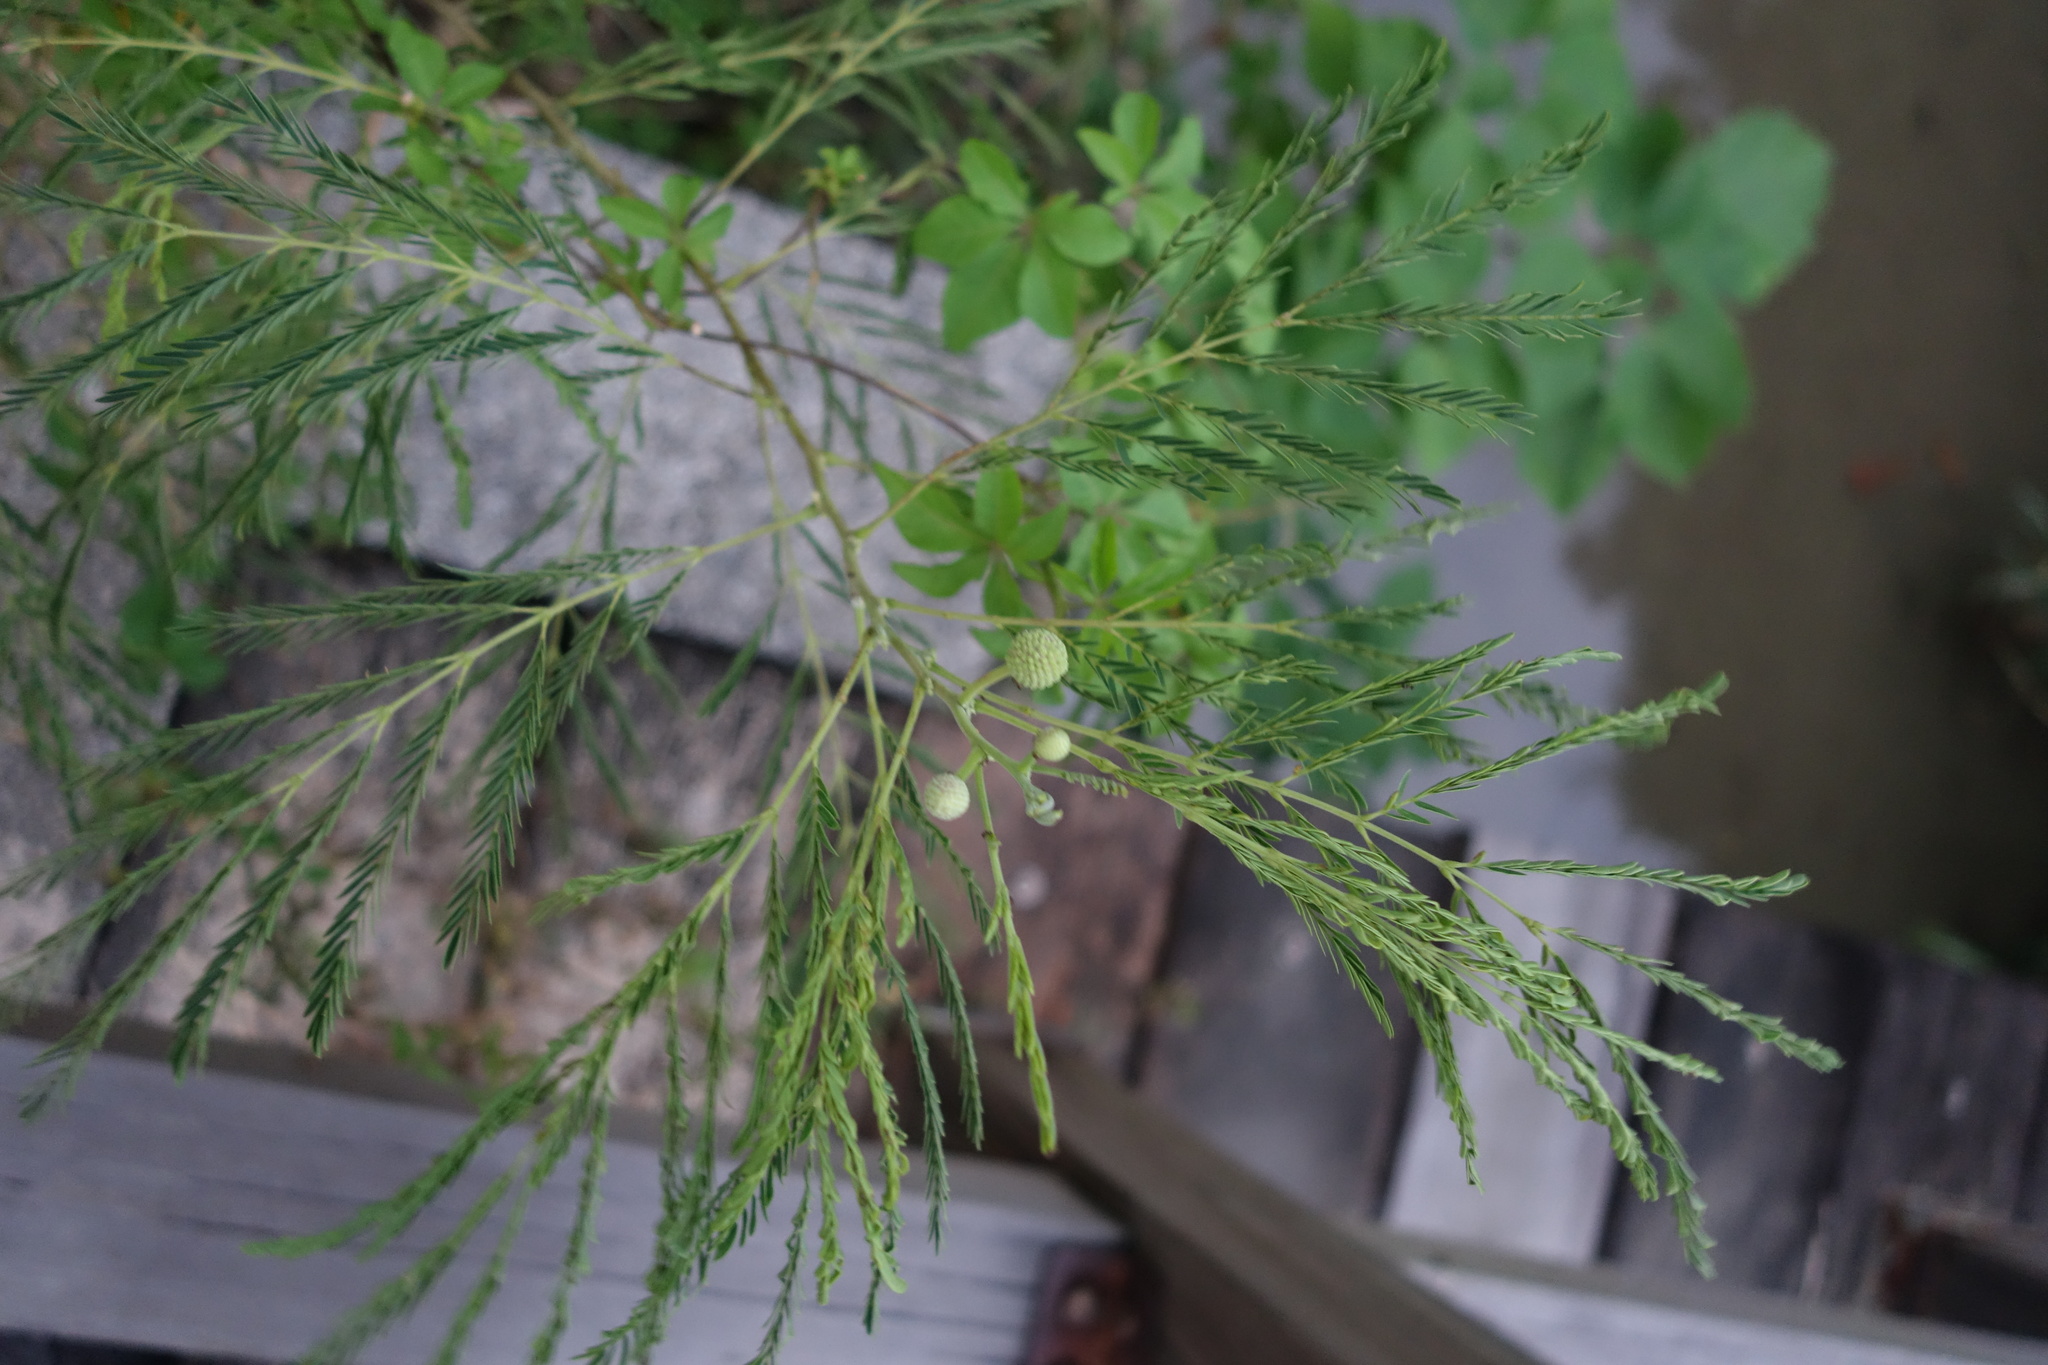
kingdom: Plantae
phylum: Tracheophyta
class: Magnoliopsida
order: Fabales
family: Fabaceae
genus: Leucaena
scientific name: Leucaena leucocephala
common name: White leadtree
